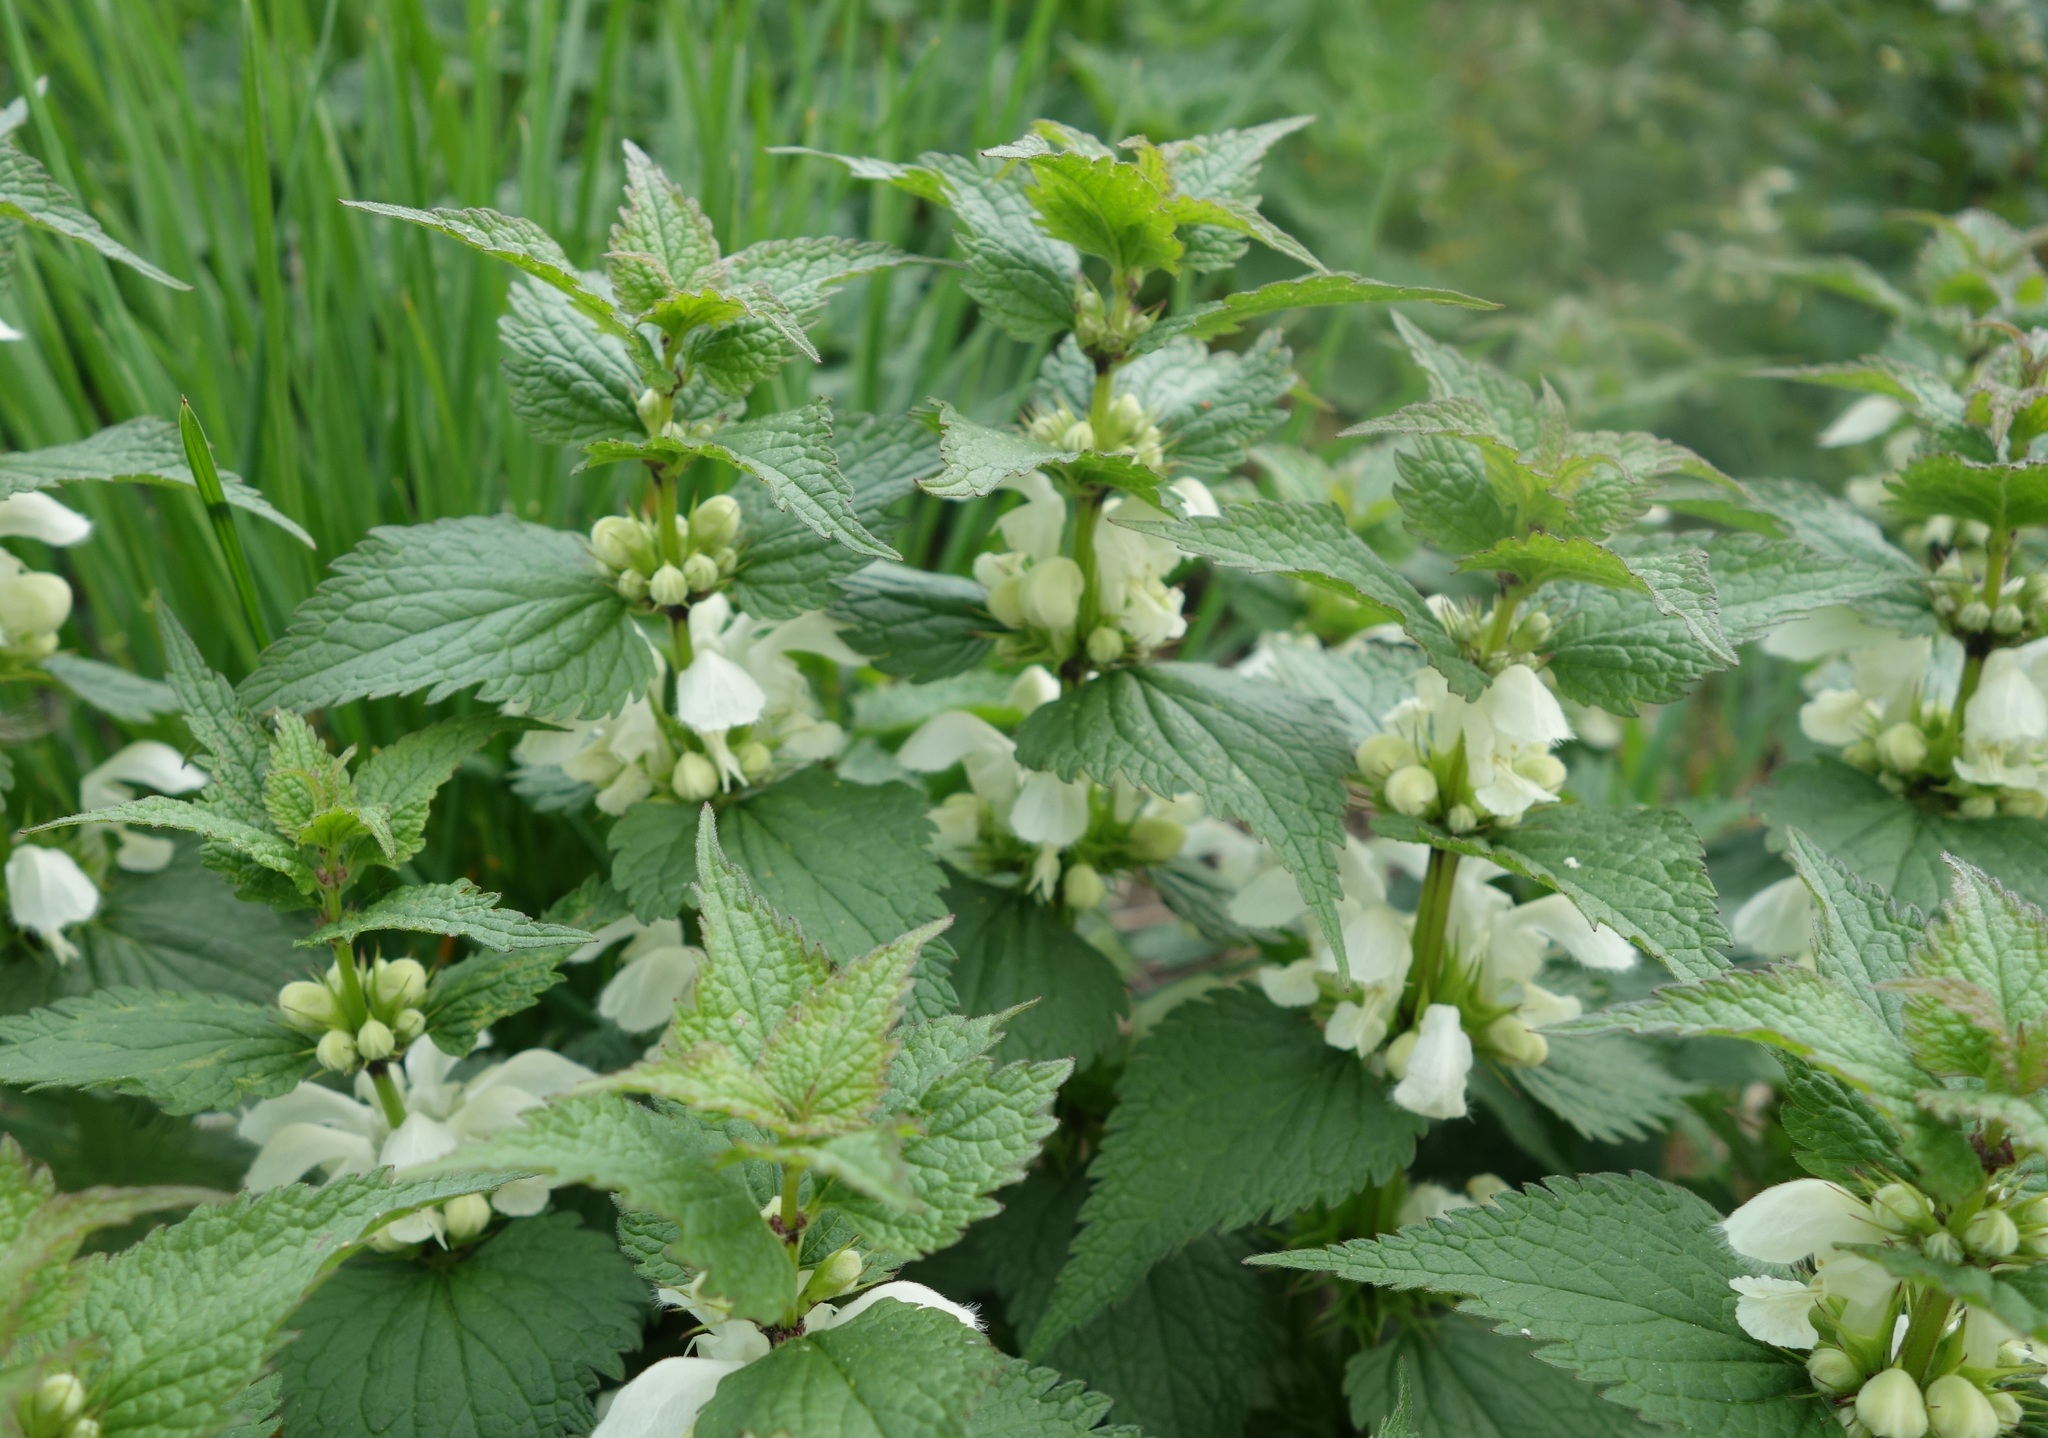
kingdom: Plantae
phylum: Tracheophyta
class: Magnoliopsida
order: Lamiales
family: Lamiaceae
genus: Lamium
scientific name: Lamium album
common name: White dead-nettle
